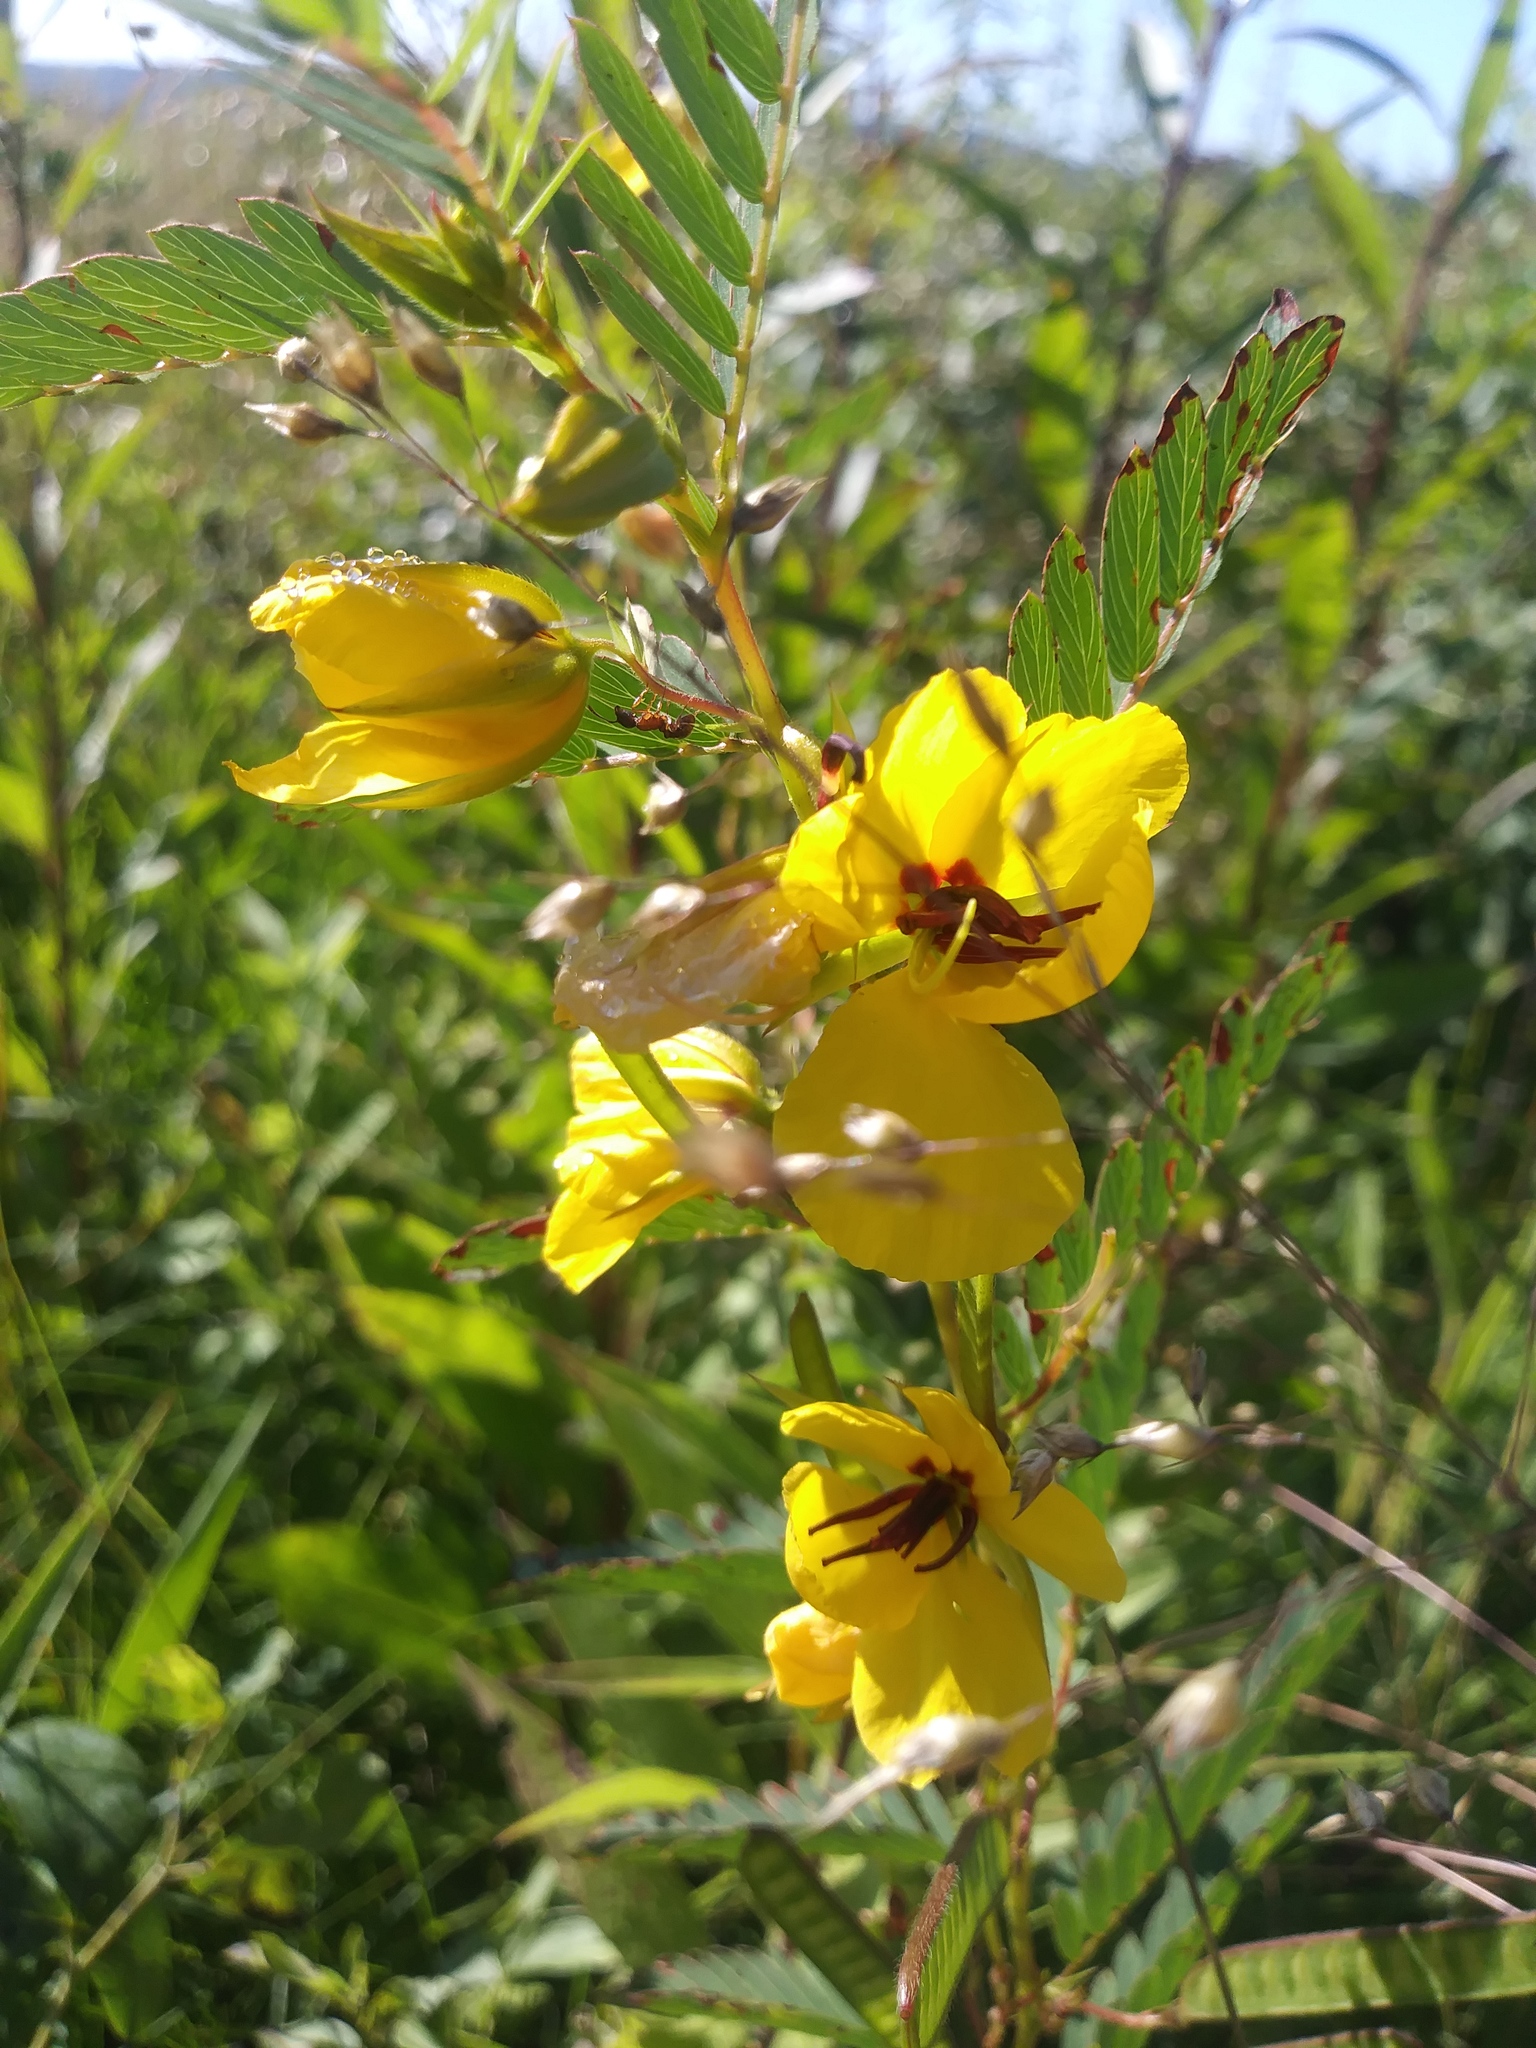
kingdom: Plantae
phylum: Tracheophyta
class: Magnoliopsida
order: Fabales
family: Fabaceae
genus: Chamaecrista
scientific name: Chamaecrista fasciculata
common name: Golden cassia
